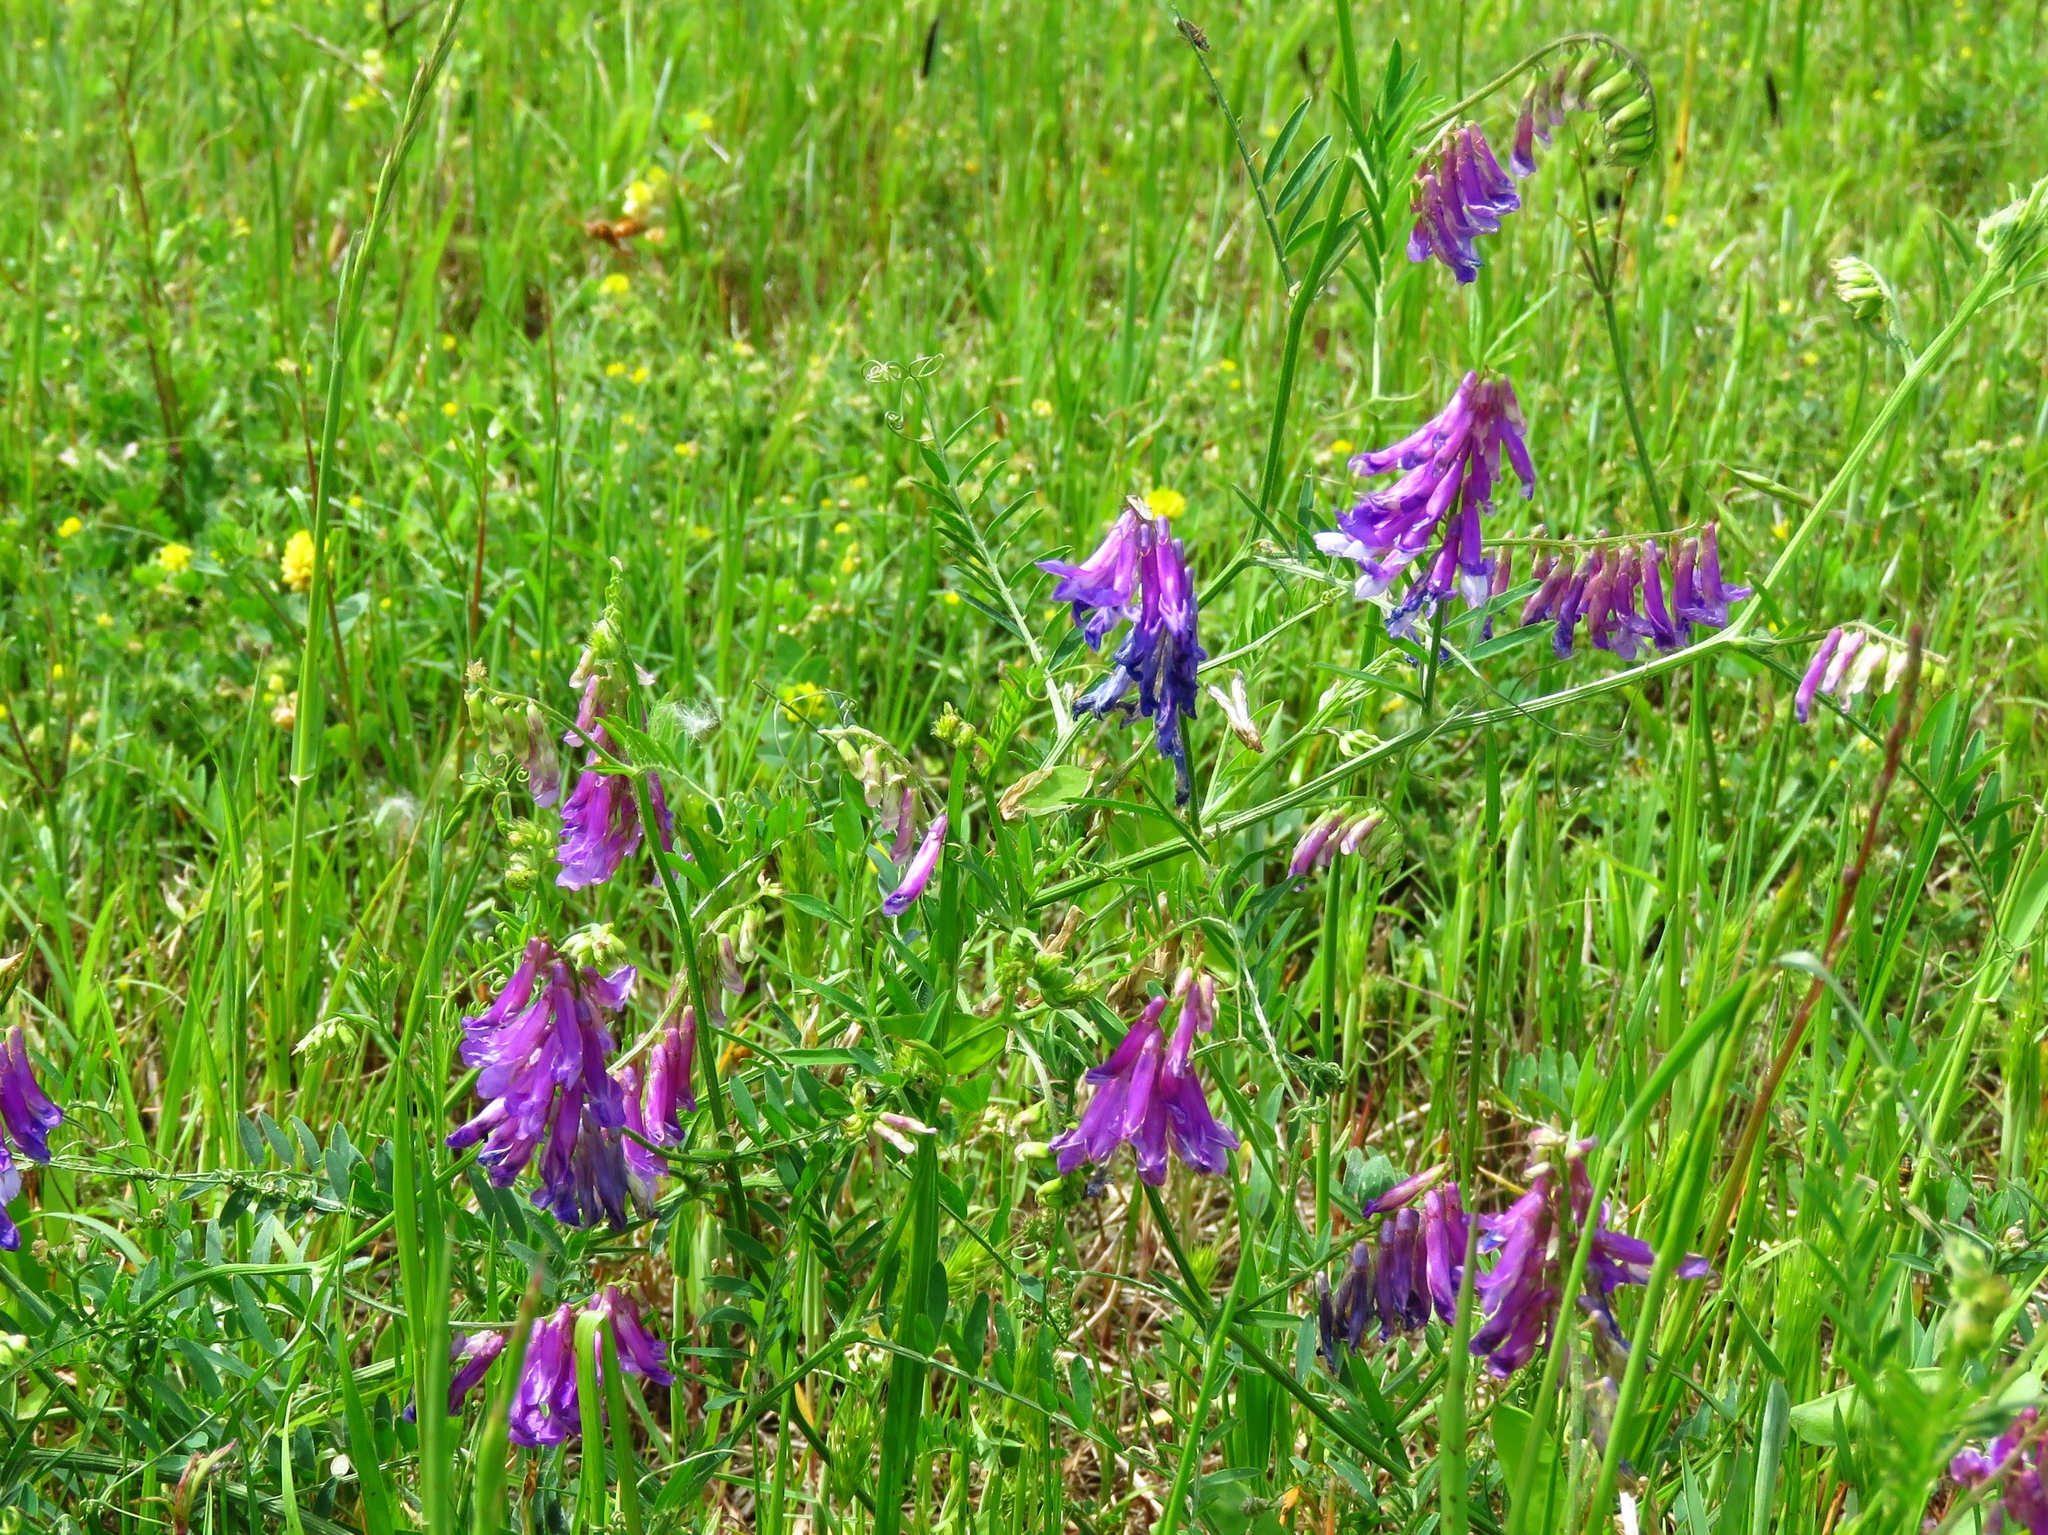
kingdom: Plantae
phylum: Tracheophyta
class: Magnoliopsida
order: Fabales
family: Fabaceae
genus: Vicia
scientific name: Vicia villosa
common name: Fodder vetch
